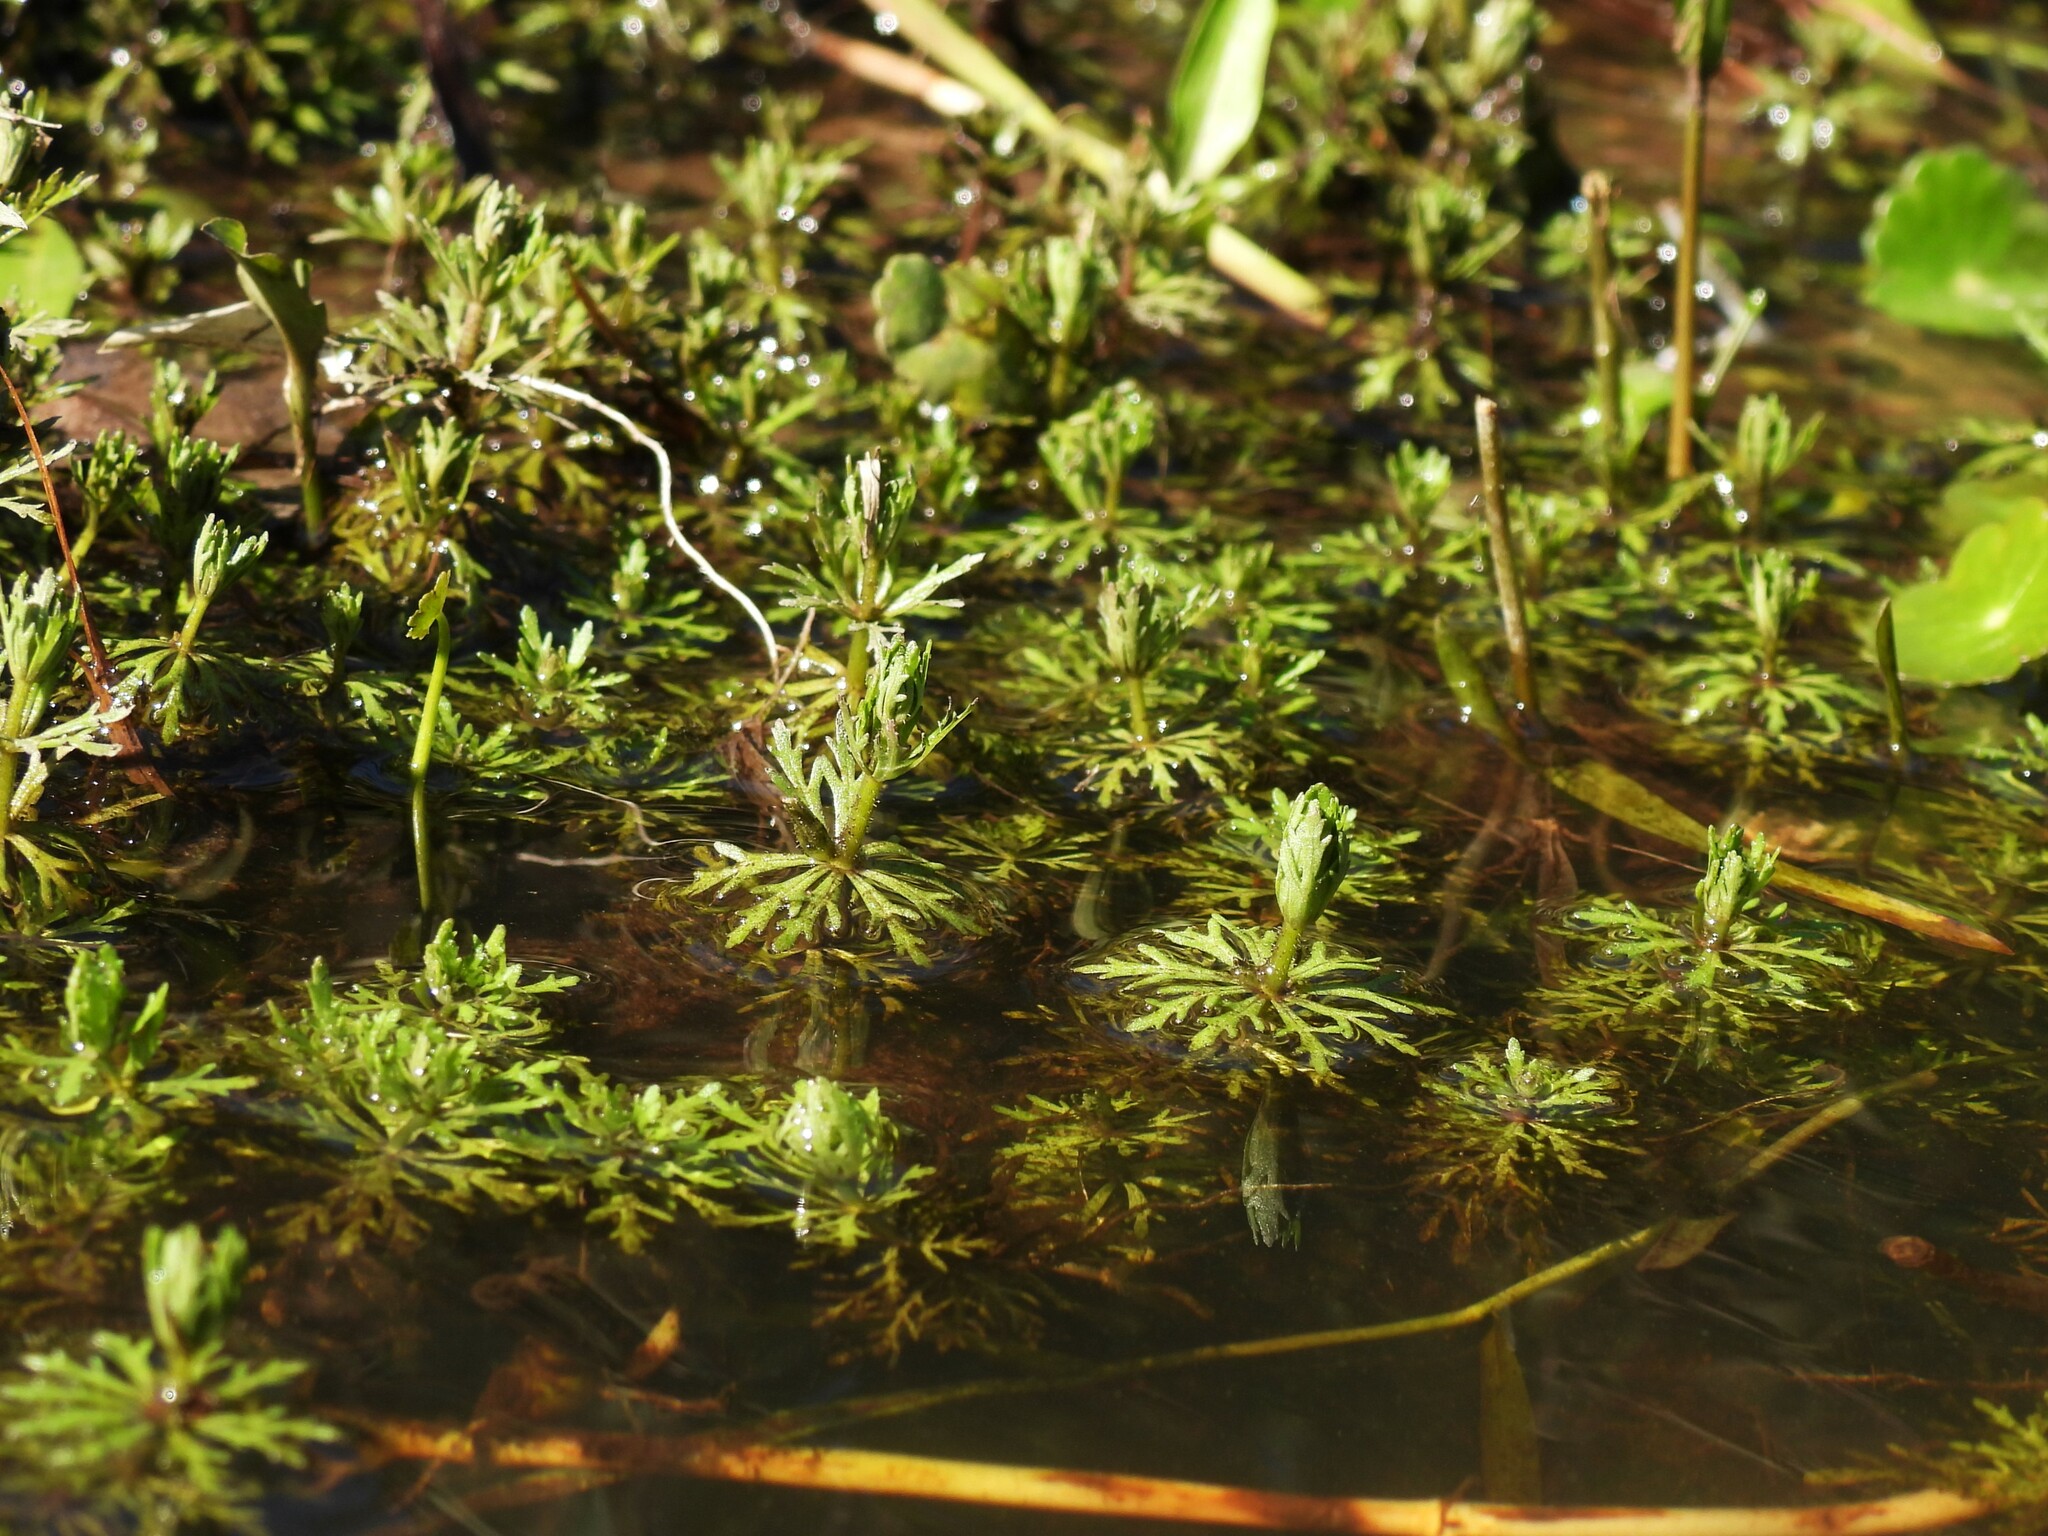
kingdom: Plantae
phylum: Tracheophyta
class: Magnoliopsida
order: Lamiales
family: Plantaginaceae
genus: Limnophila
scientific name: Limnophila sessiliflora
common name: Asian marshweed
